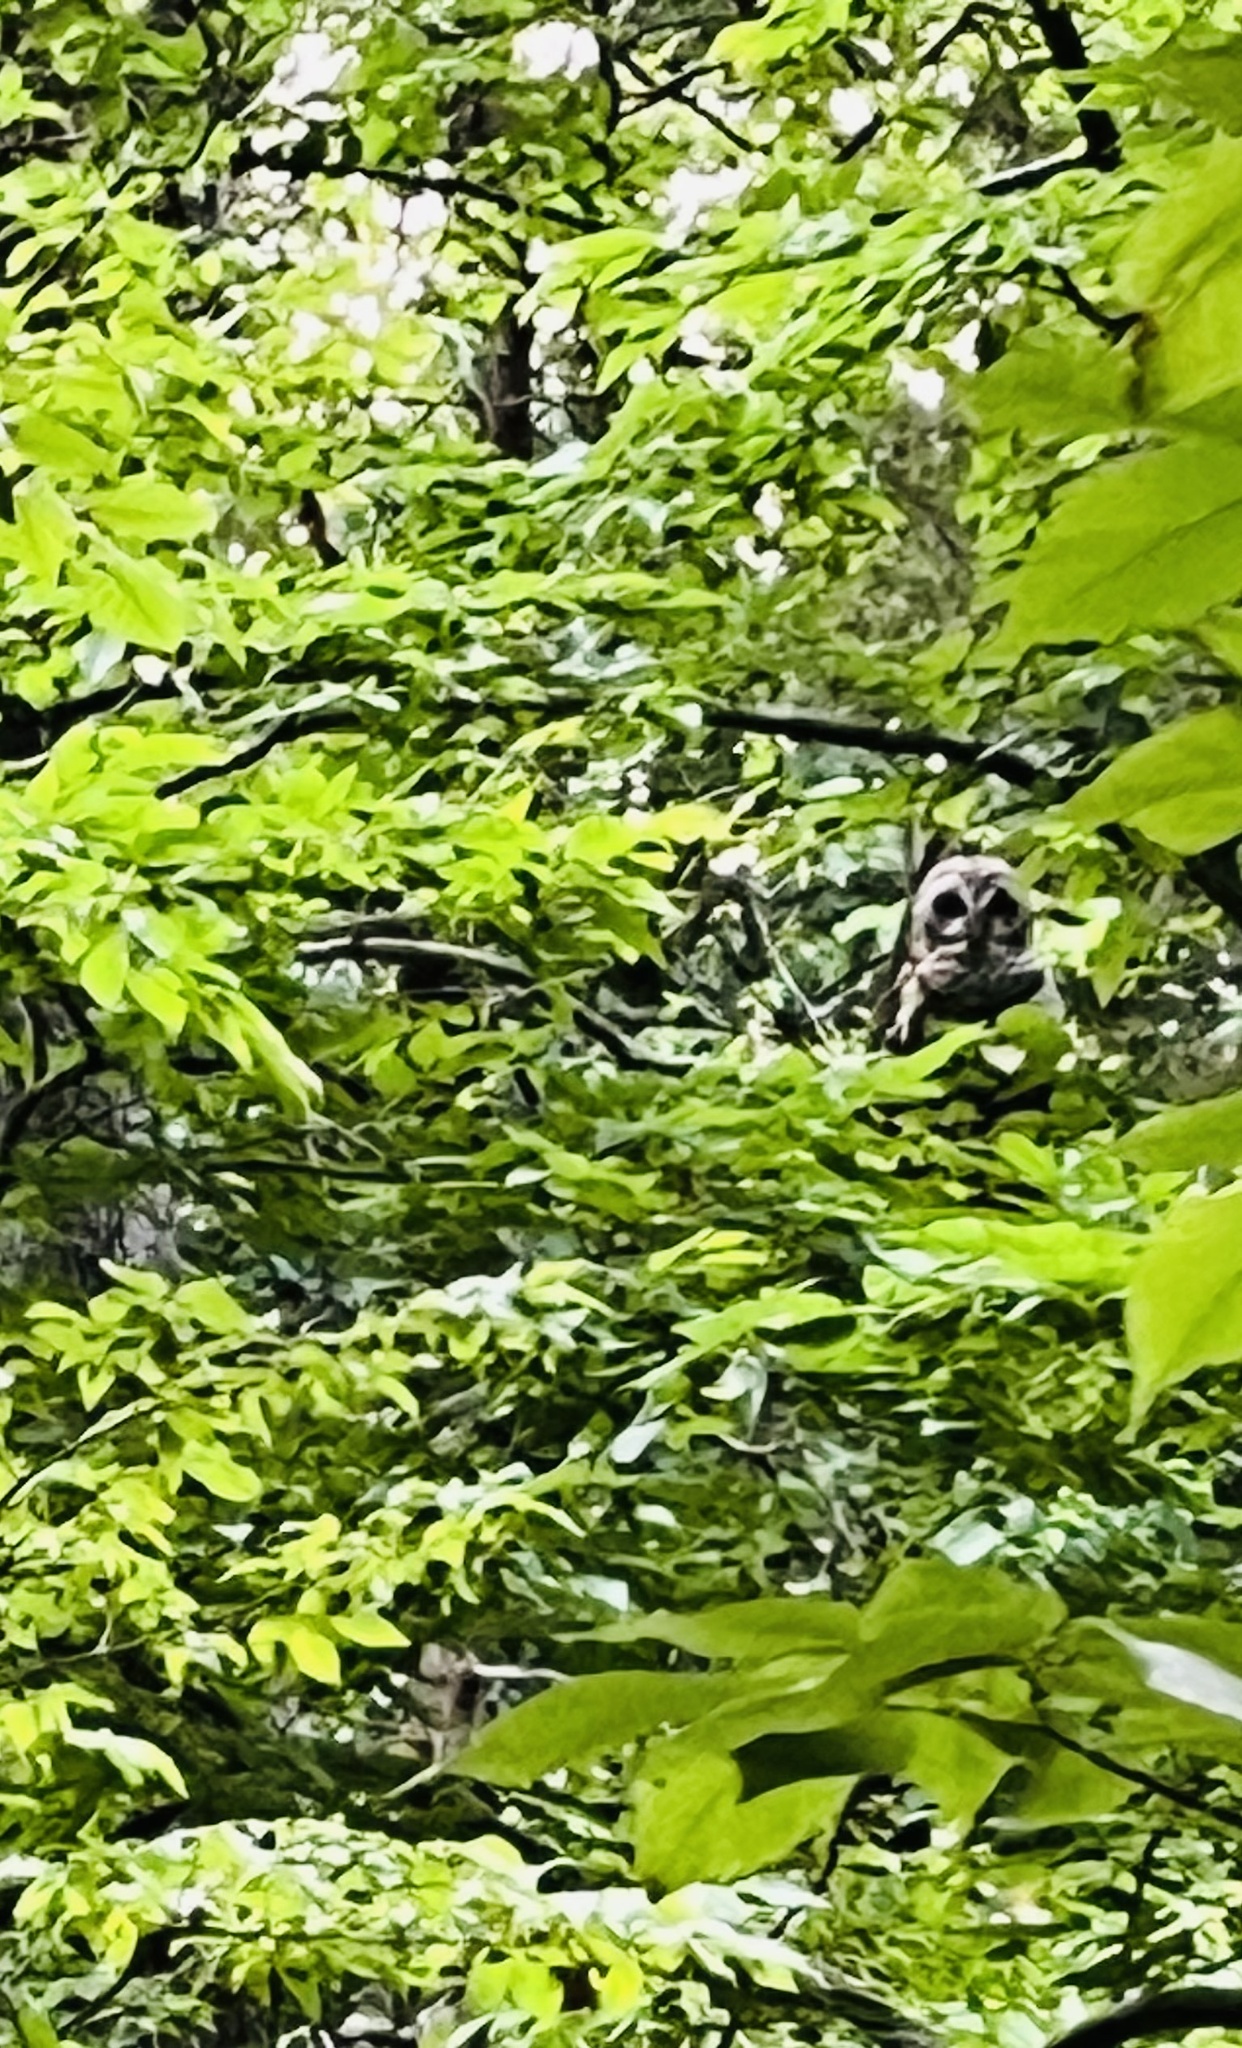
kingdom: Animalia
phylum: Chordata
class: Aves
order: Strigiformes
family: Strigidae
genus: Strix
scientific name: Strix varia
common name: Barred owl
